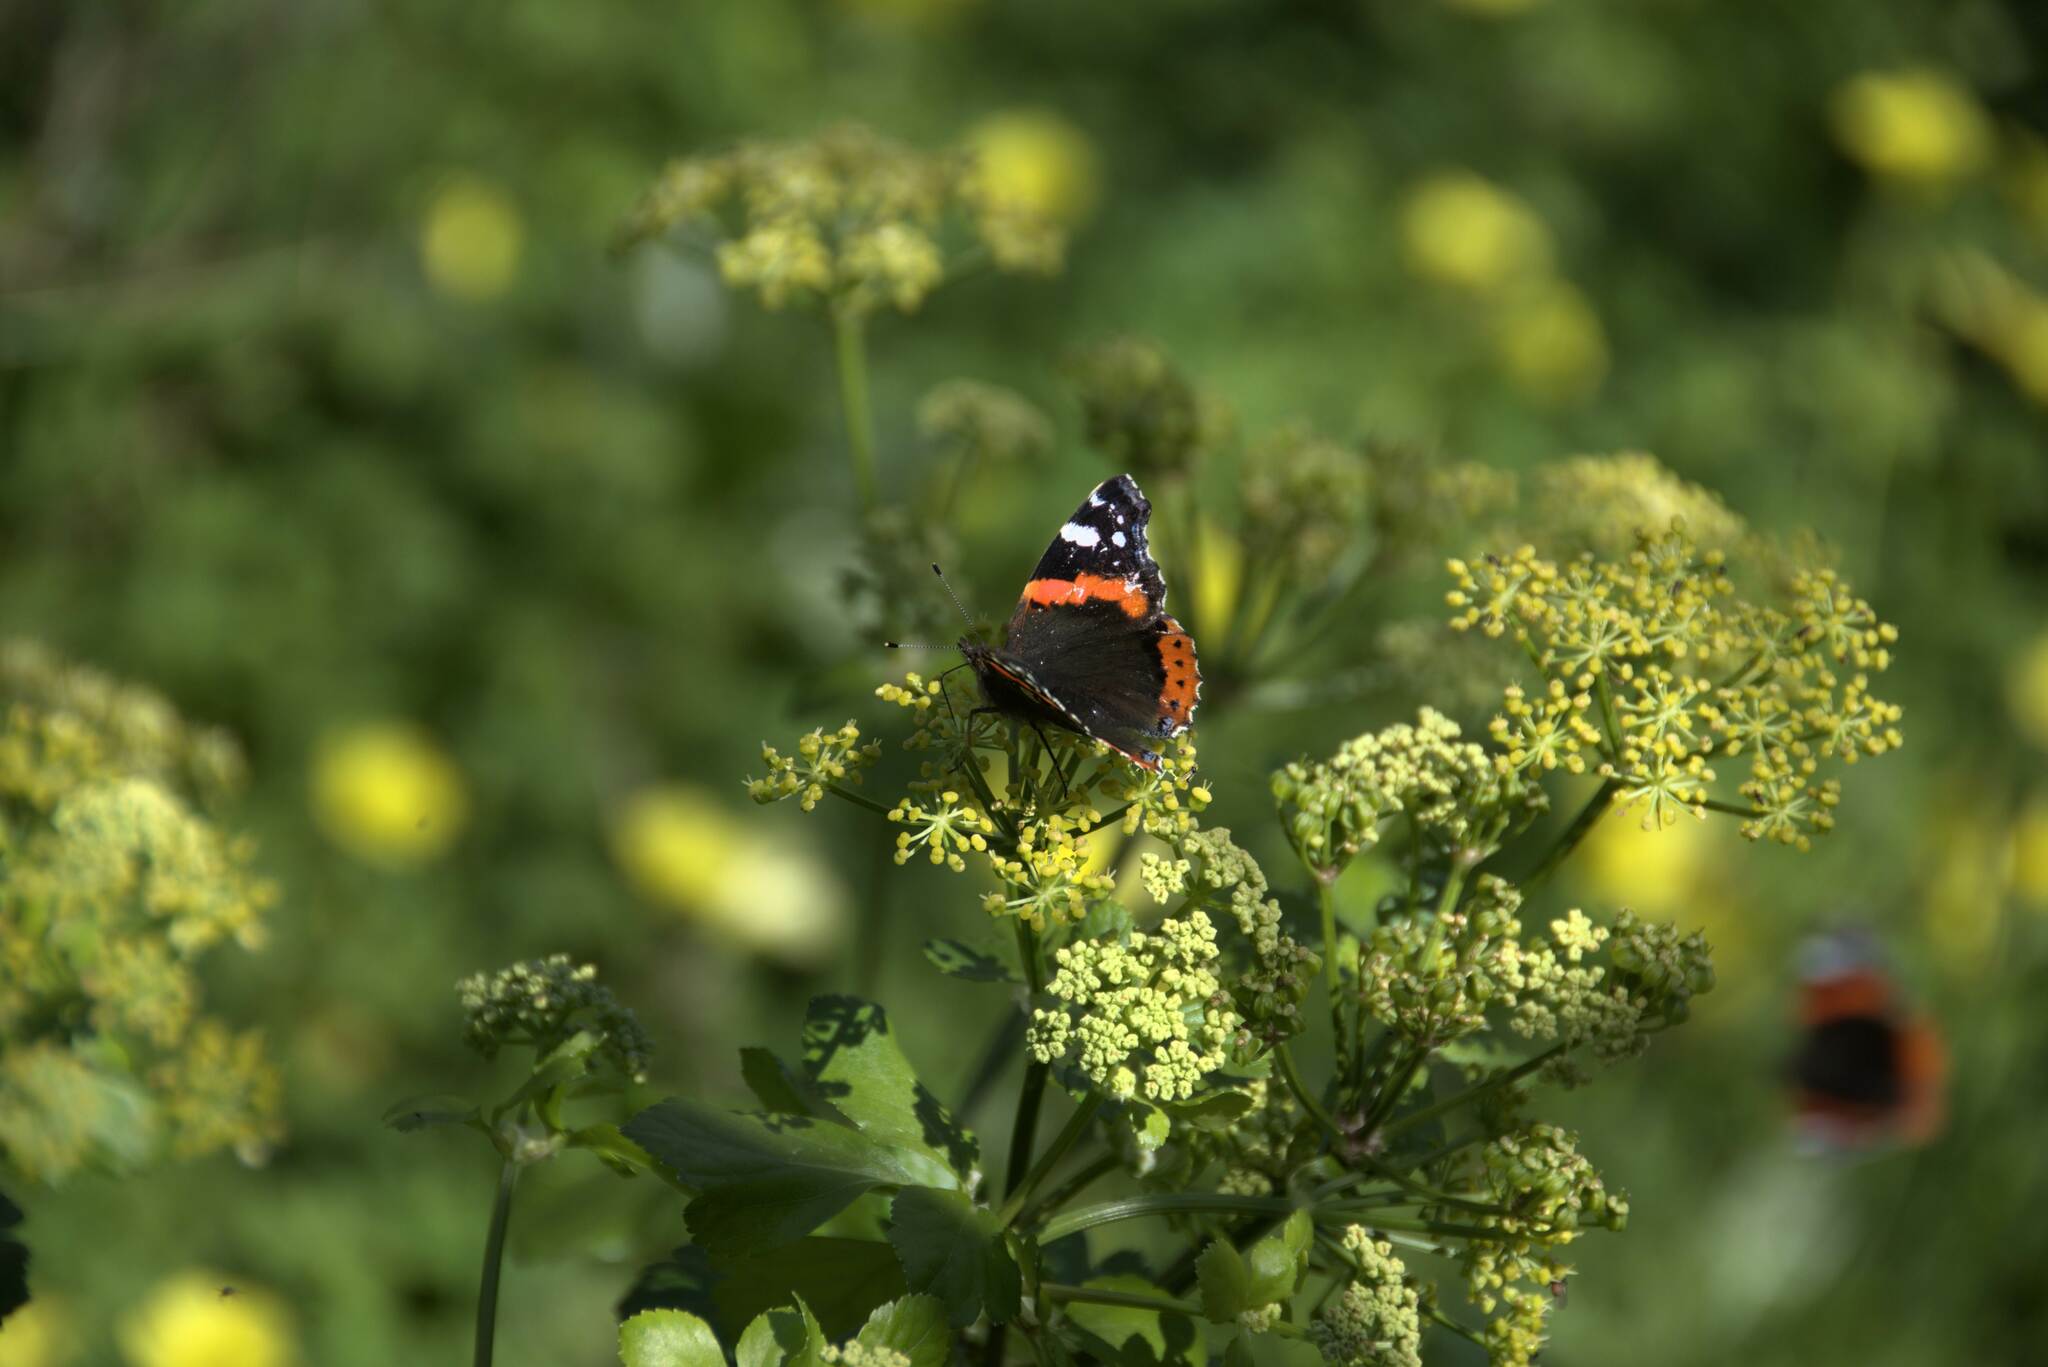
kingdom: Animalia
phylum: Arthropoda
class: Insecta
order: Lepidoptera
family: Nymphalidae
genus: Vanessa
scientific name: Vanessa atalanta
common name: Red admiral
